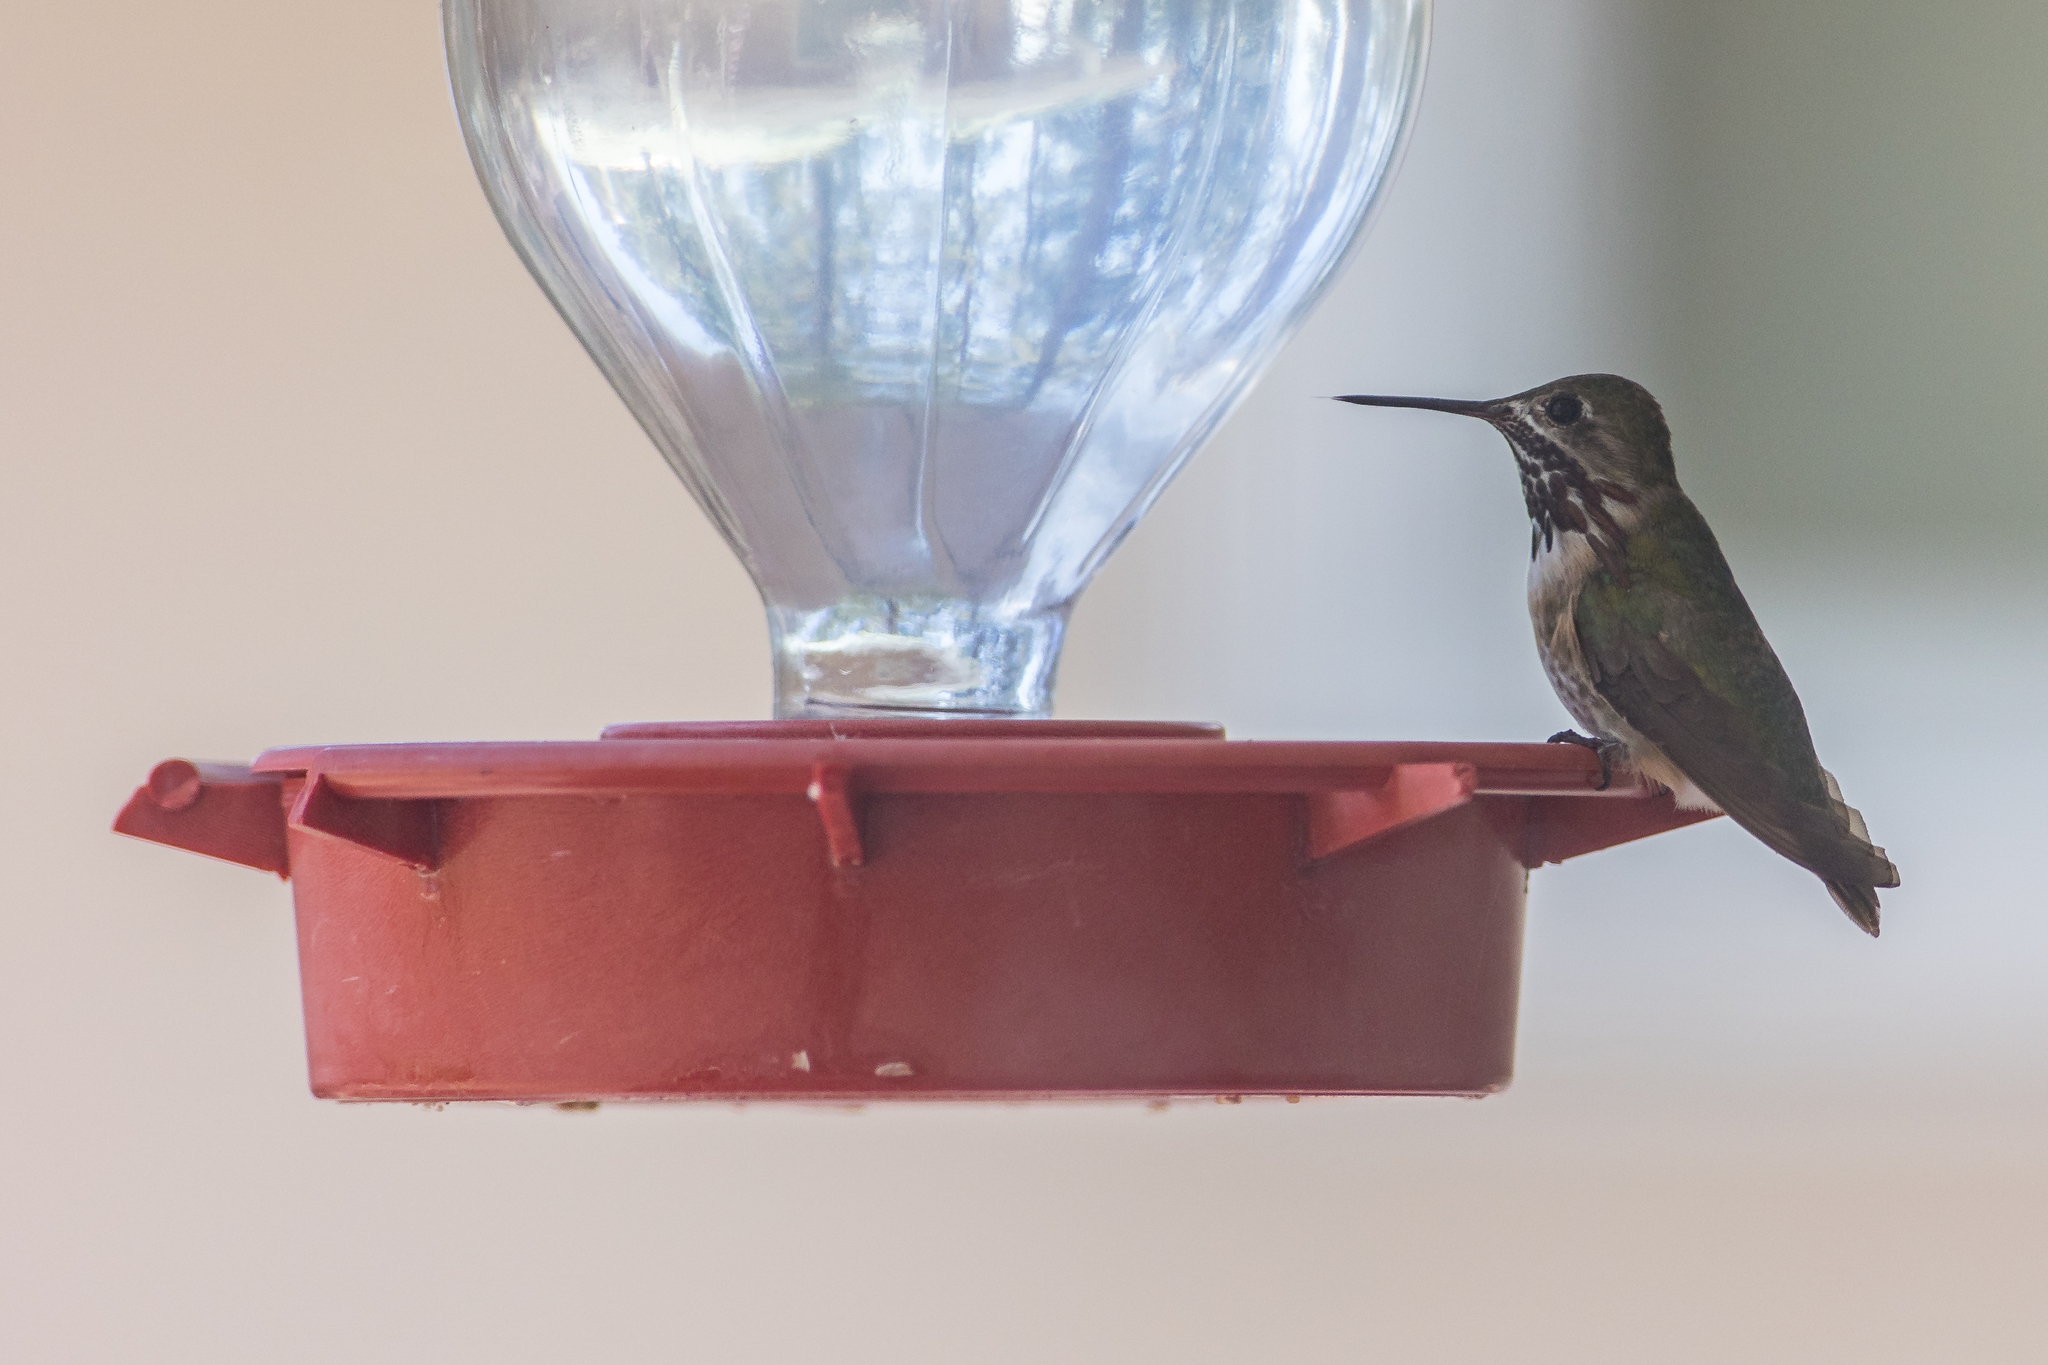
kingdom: Animalia
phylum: Chordata
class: Aves
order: Apodiformes
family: Trochilidae
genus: Selasphorus
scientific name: Selasphorus calliope
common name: Calliope hummingbird
